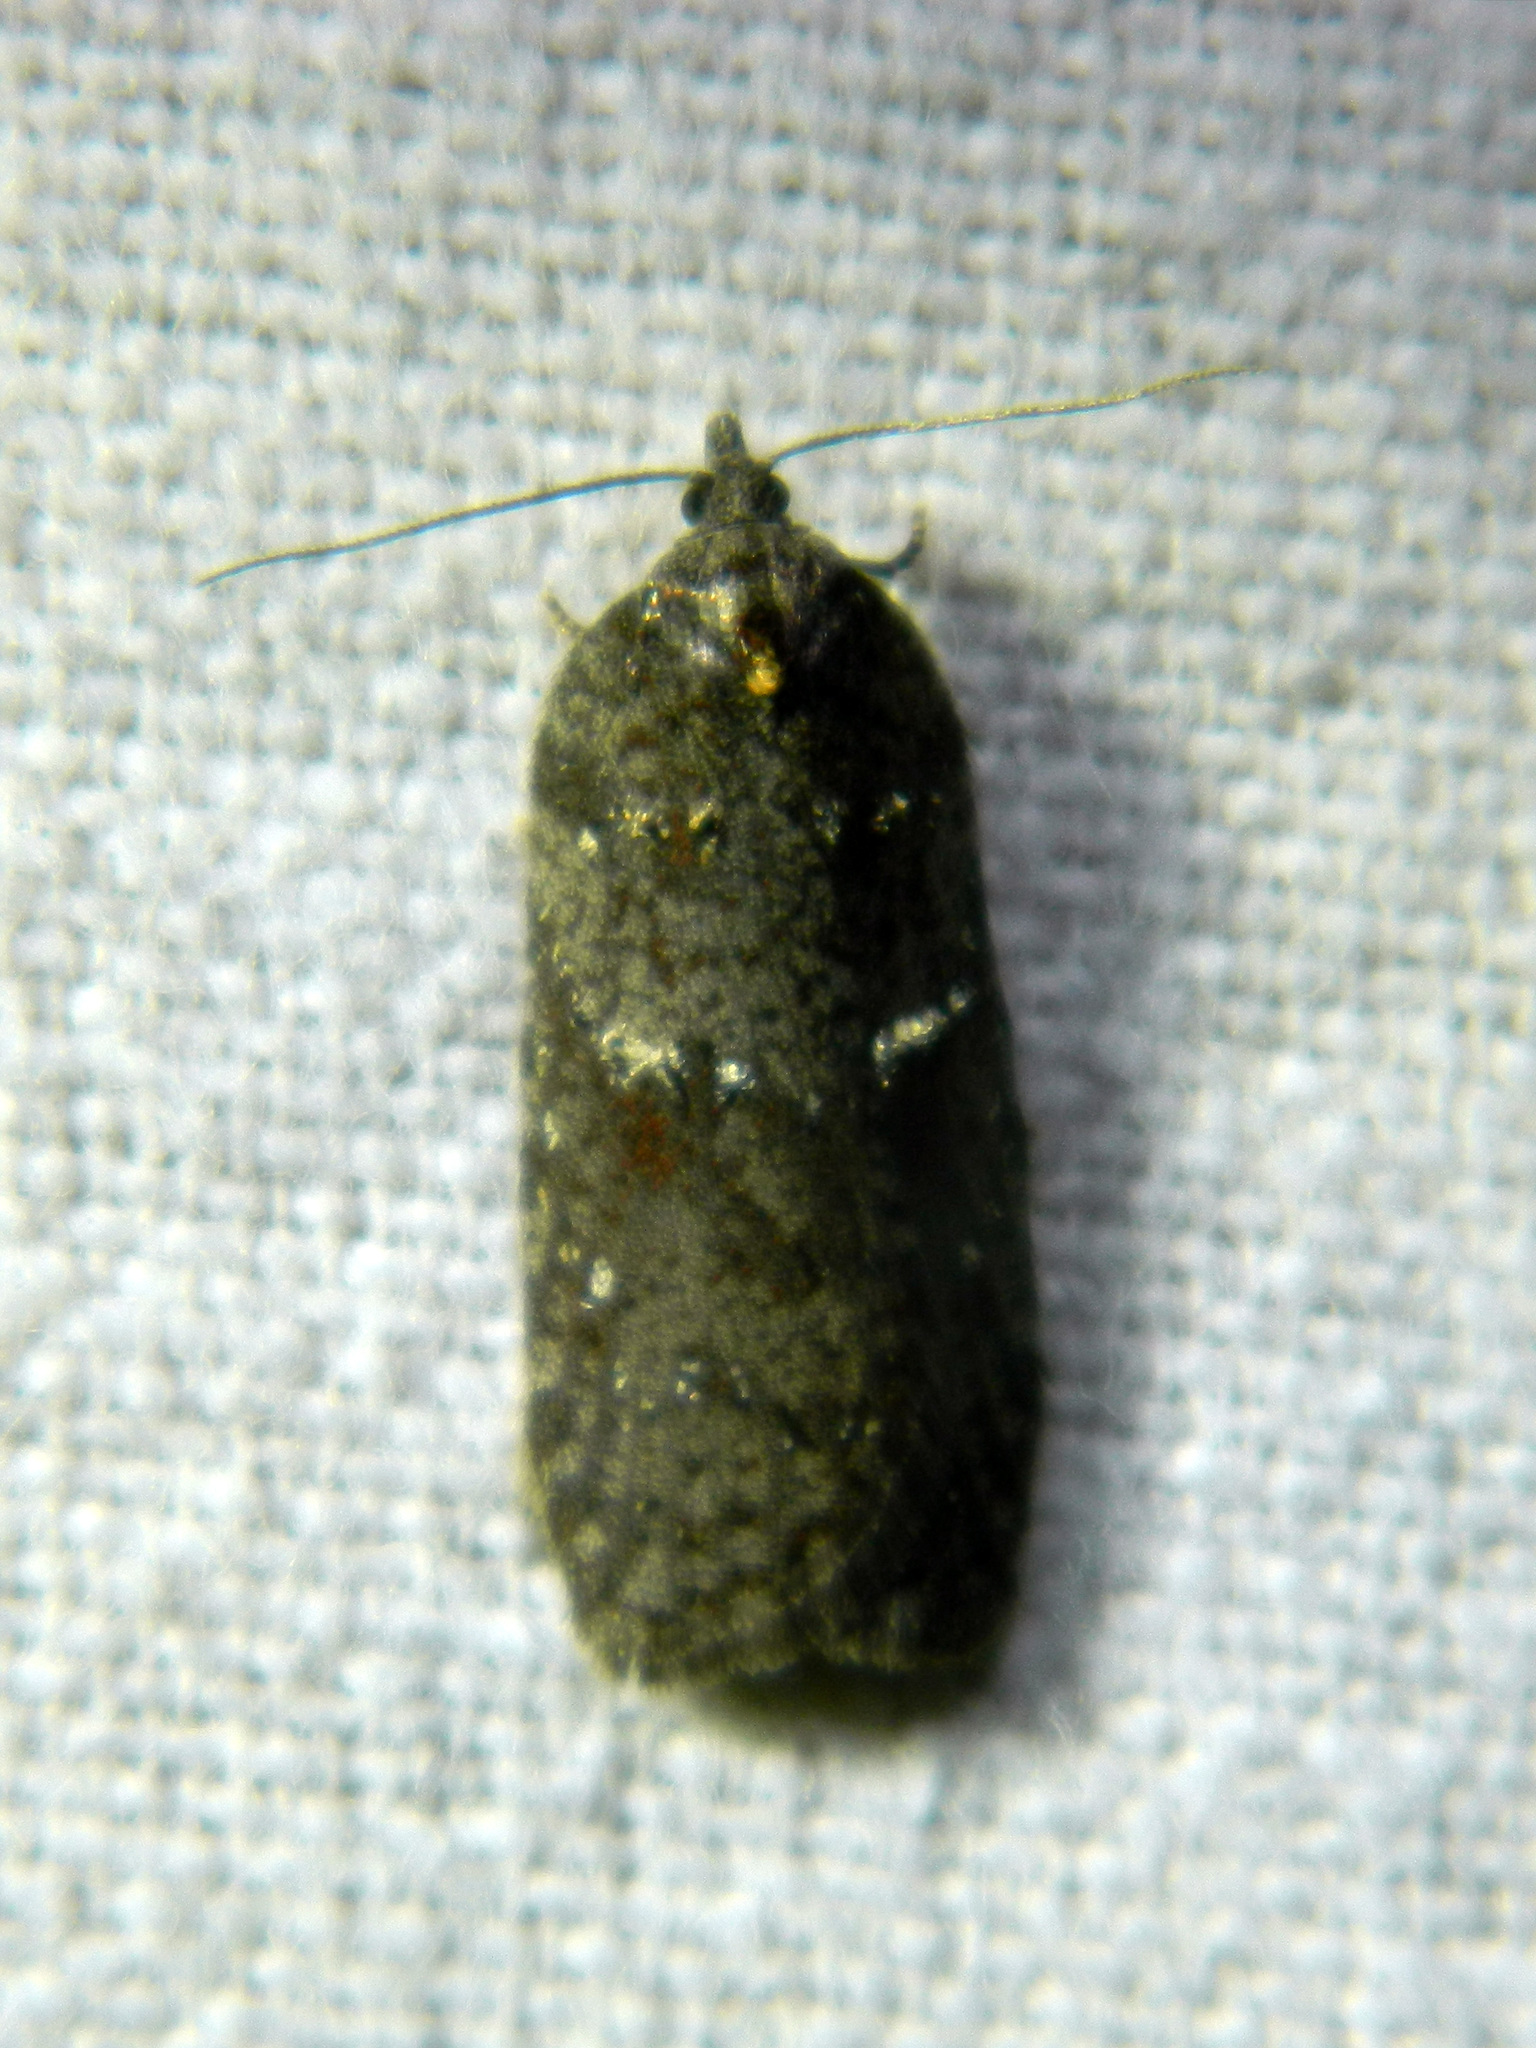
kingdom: Animalia
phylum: Arthropoda
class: Insecta
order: Lepidoptera
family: Tortricidae
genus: Acleris
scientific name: Acleris caliginosana
